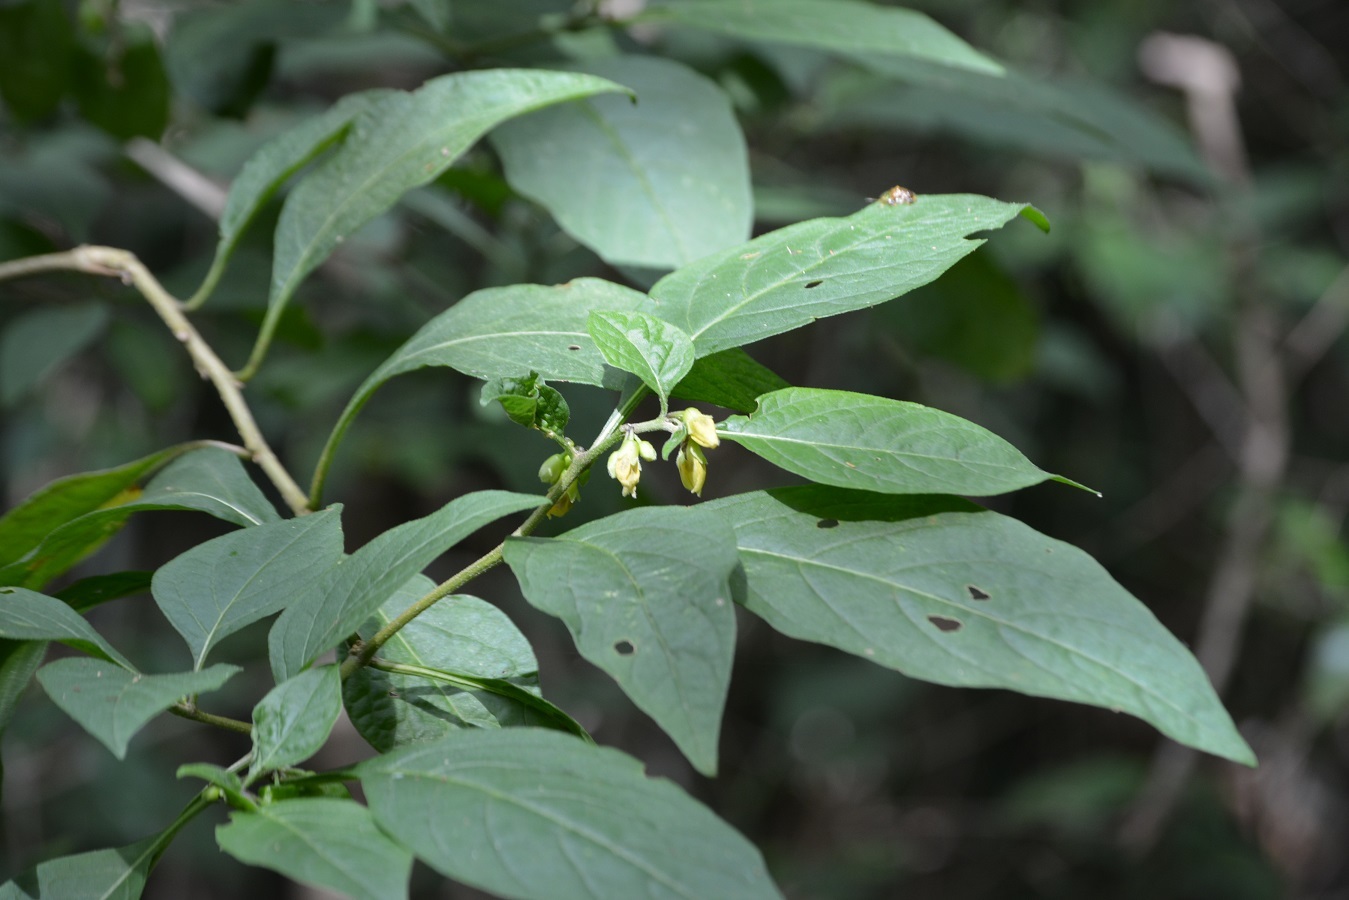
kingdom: Plantae
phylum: Tracheophyta
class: Magnoliopsida
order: Solanales
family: Solanaceae
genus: Physalis
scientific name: Physalis campechiana
